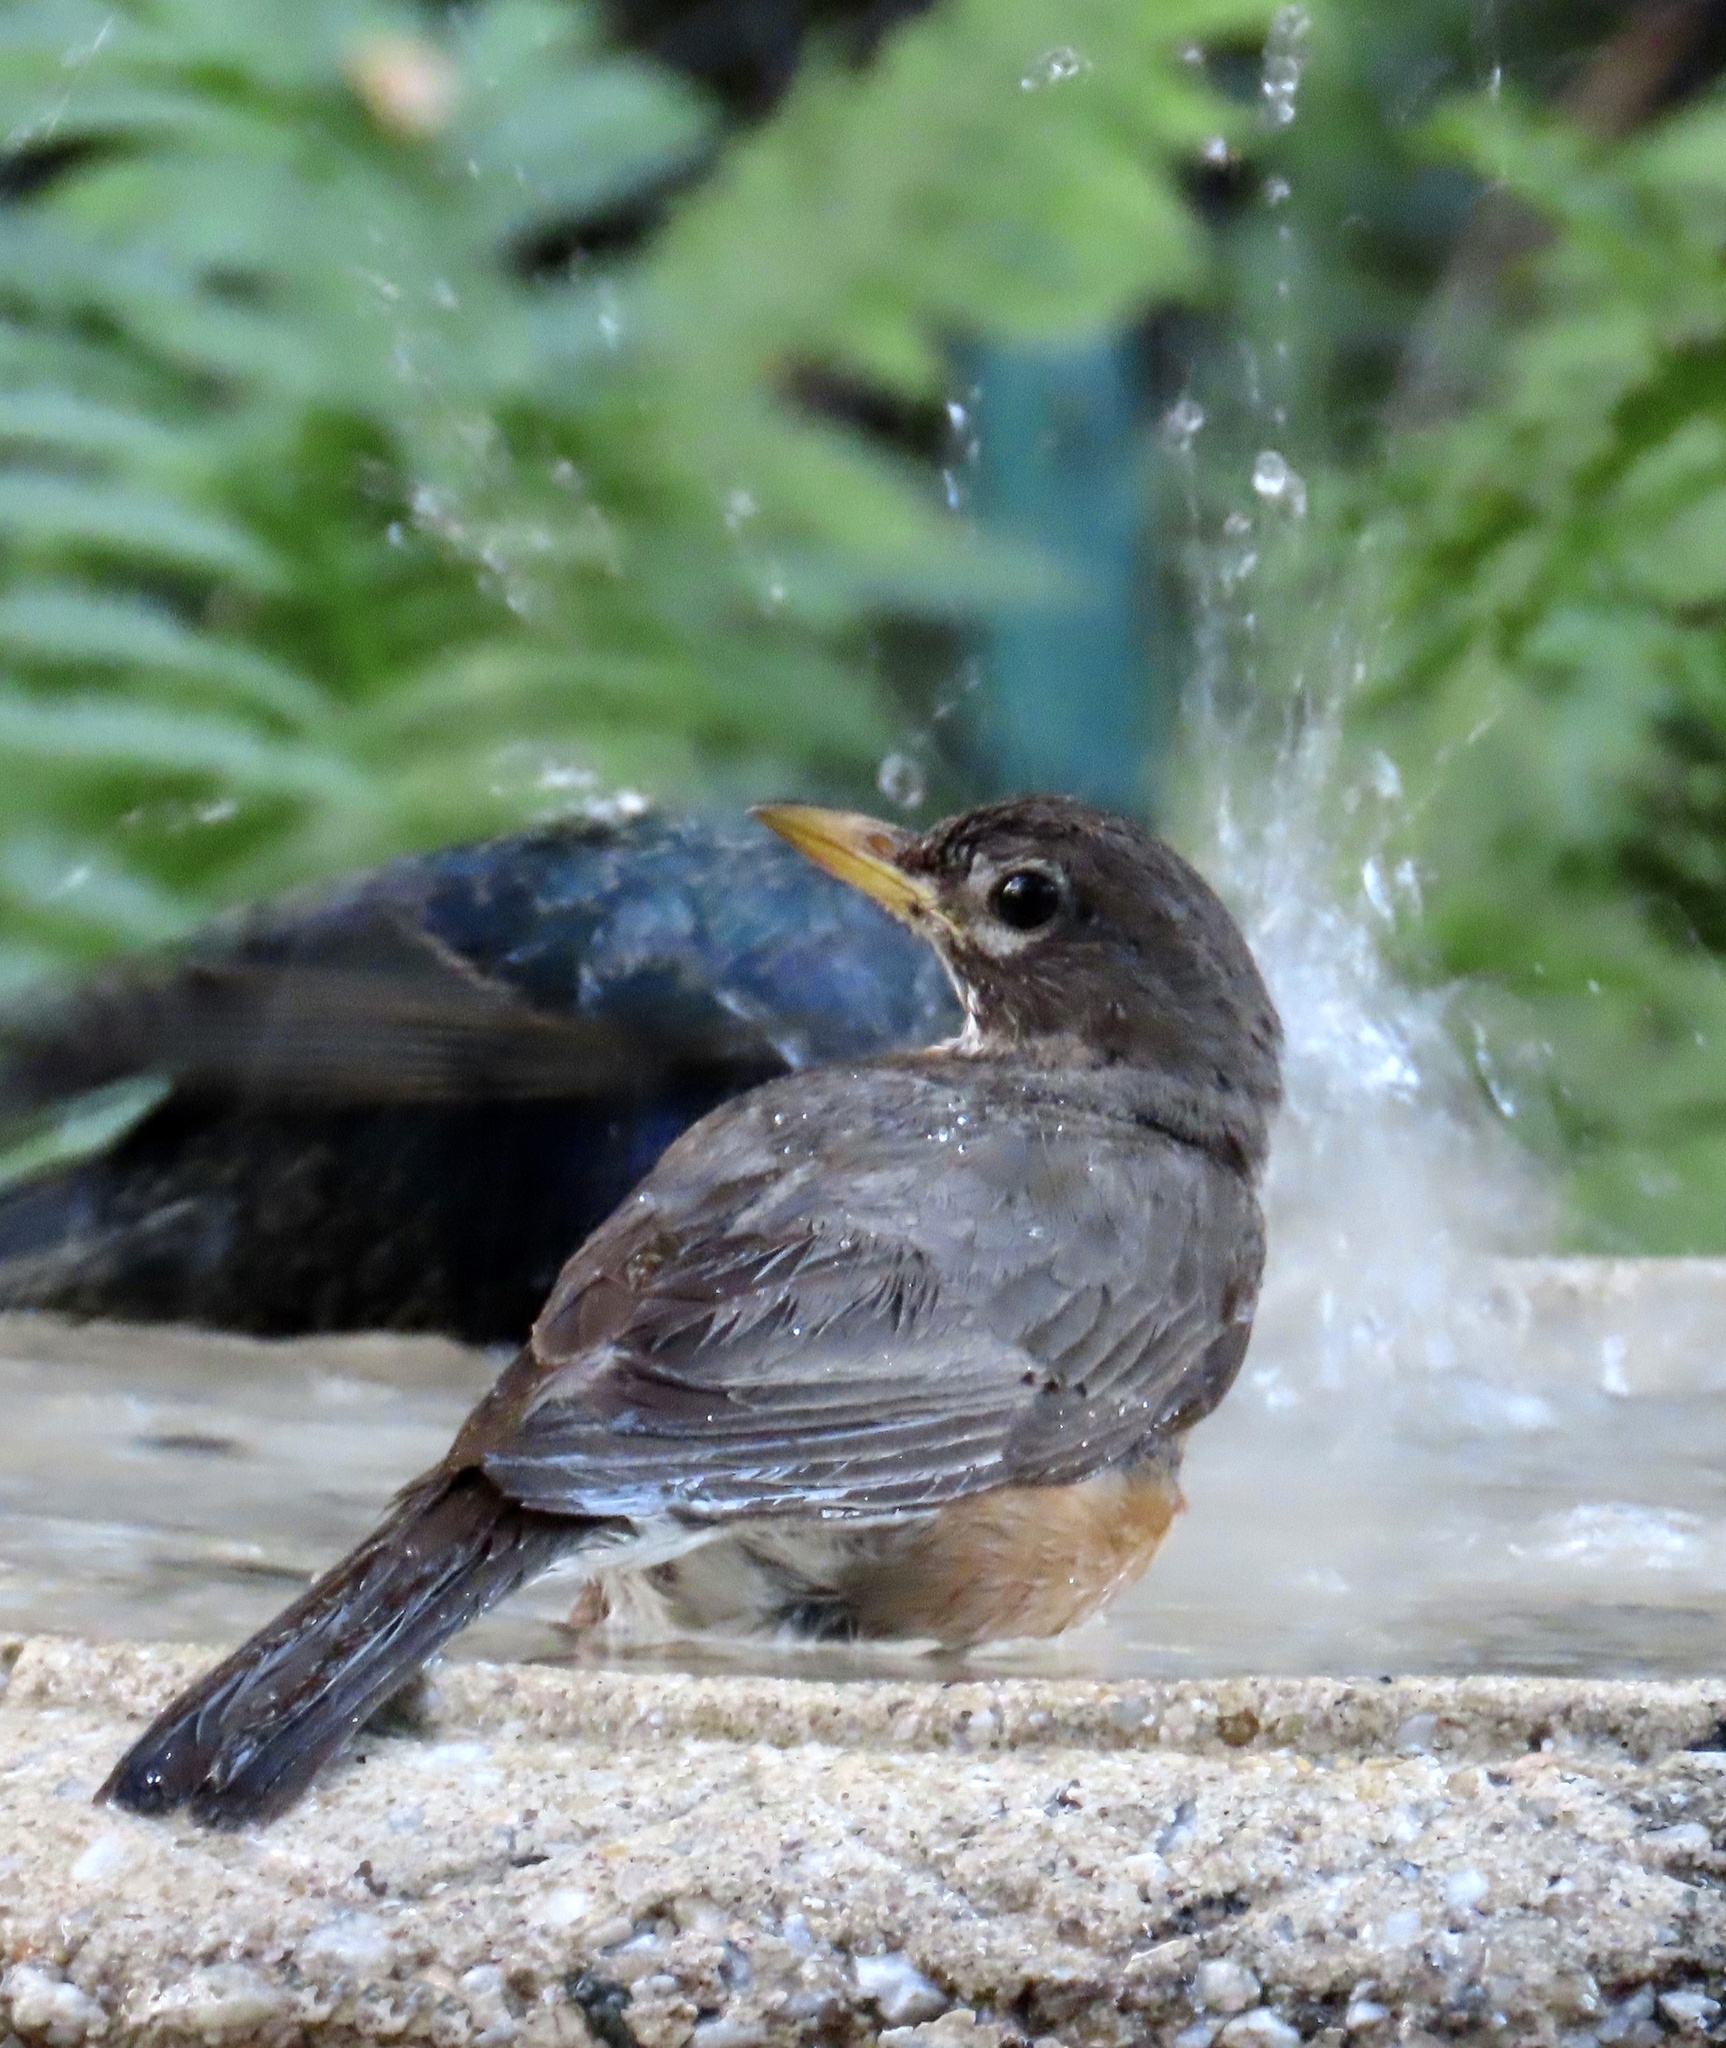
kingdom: Animalia
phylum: Chordata
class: Aves
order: Passeriformes
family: Turdidae
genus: Turdus
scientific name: Turdus migratorius
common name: American robin
